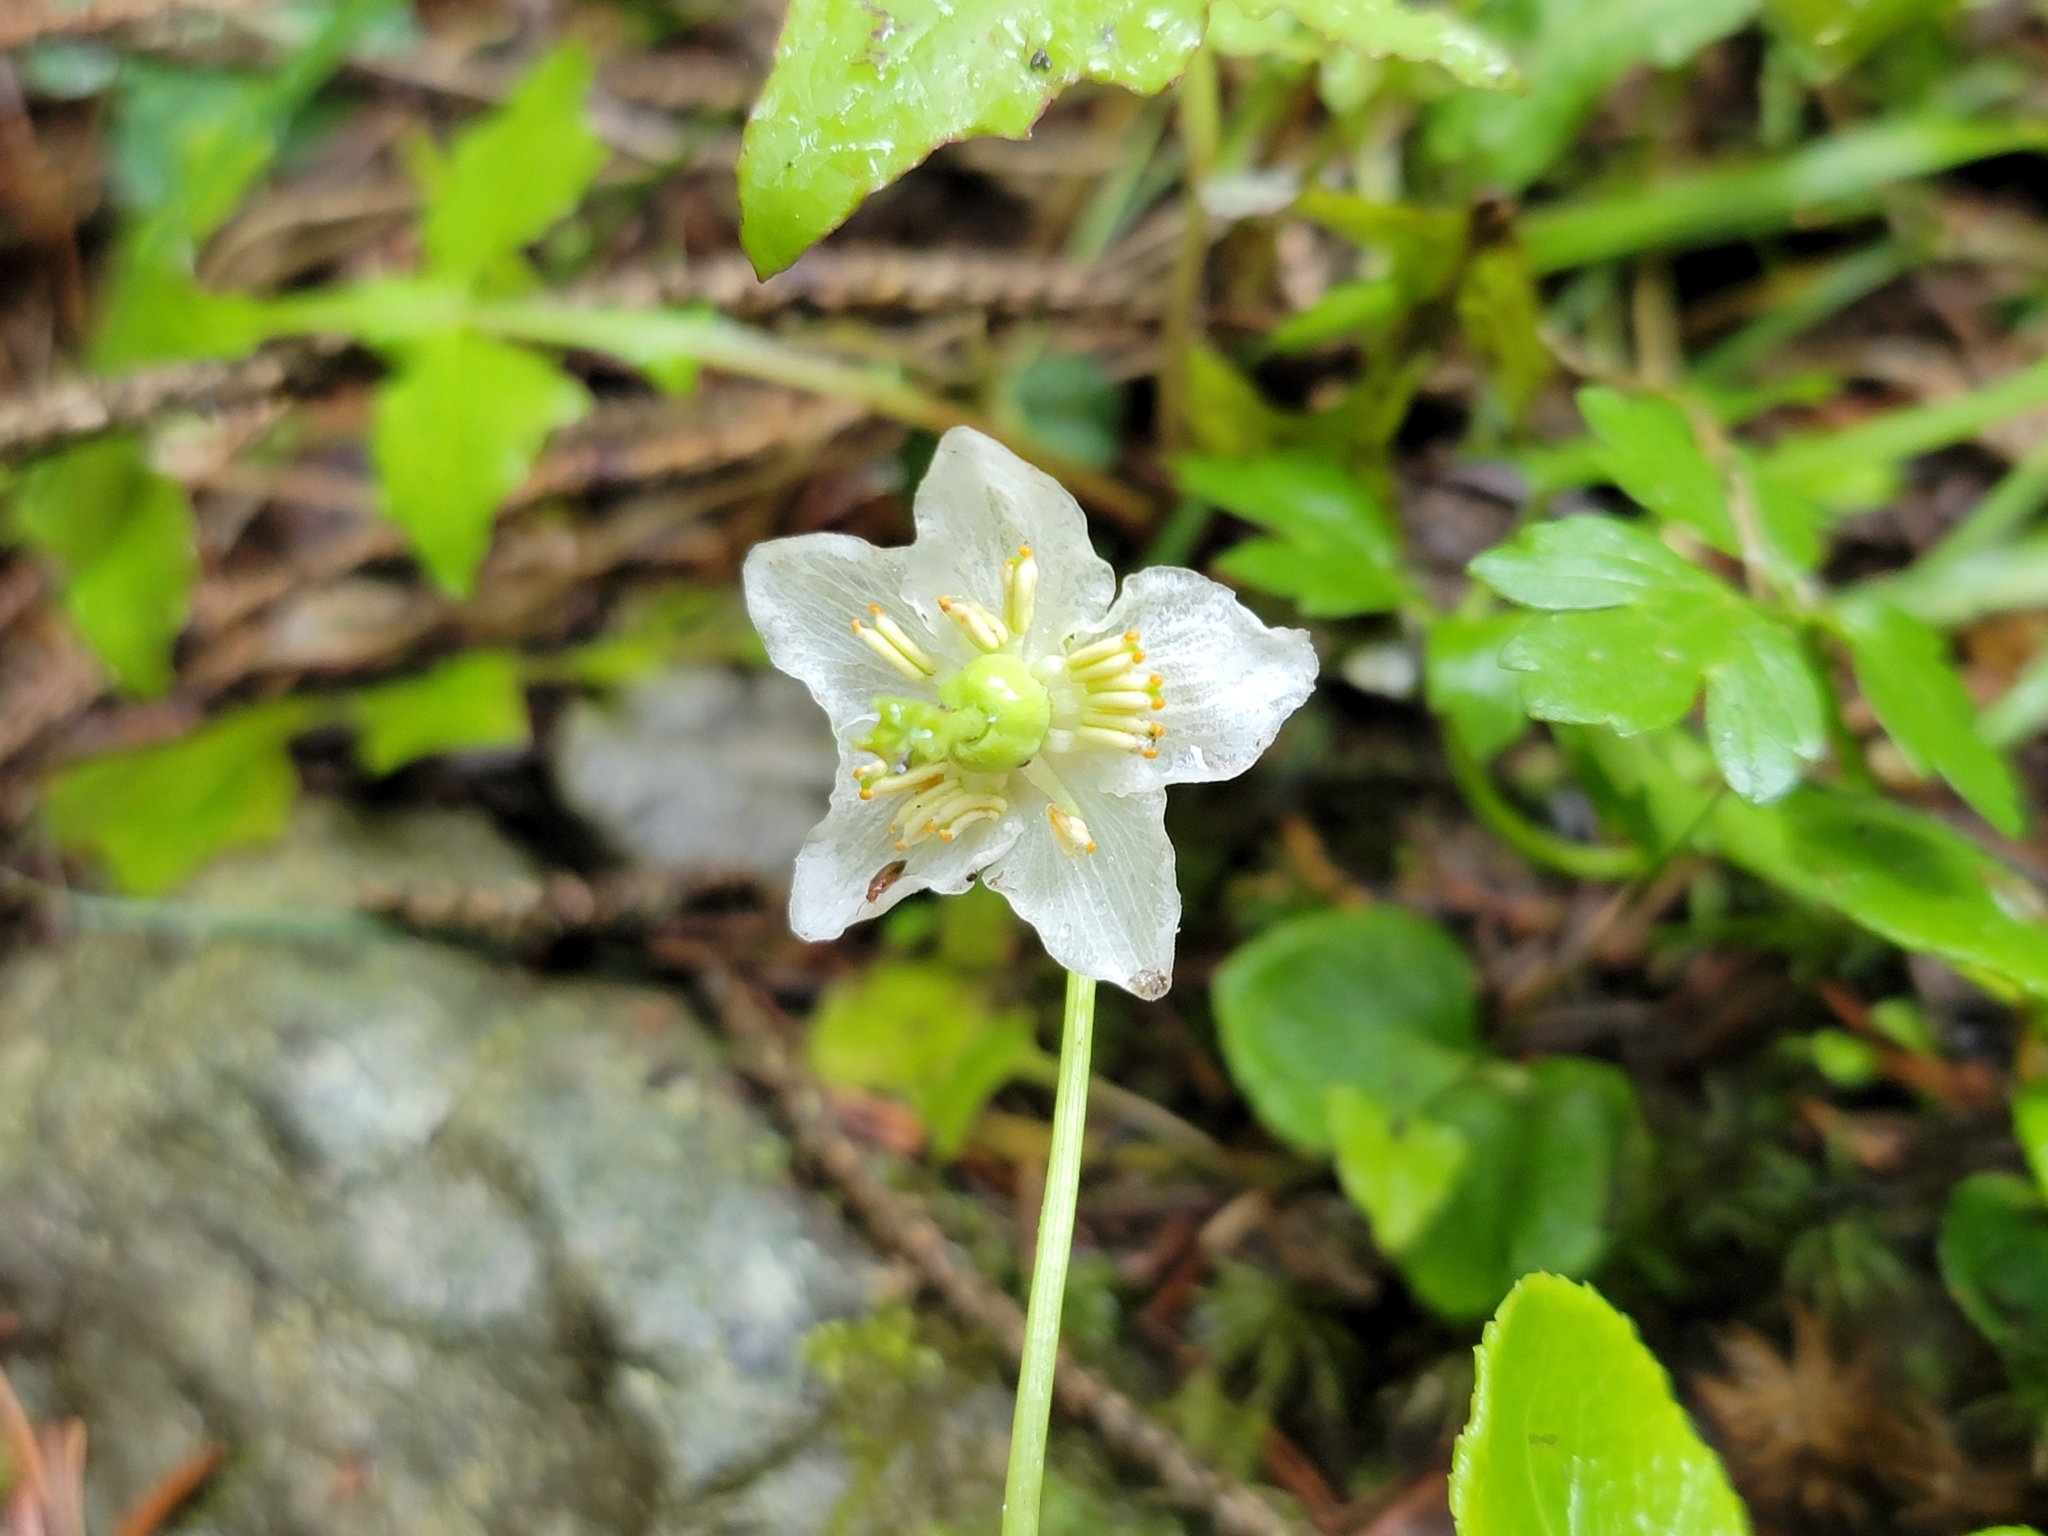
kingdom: Plantae
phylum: Tracheophyta
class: Magnoliopsida
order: Ericales
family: Ericaceae
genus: Moneses
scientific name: Moneses uniflora
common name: One-flowered wintergreen
